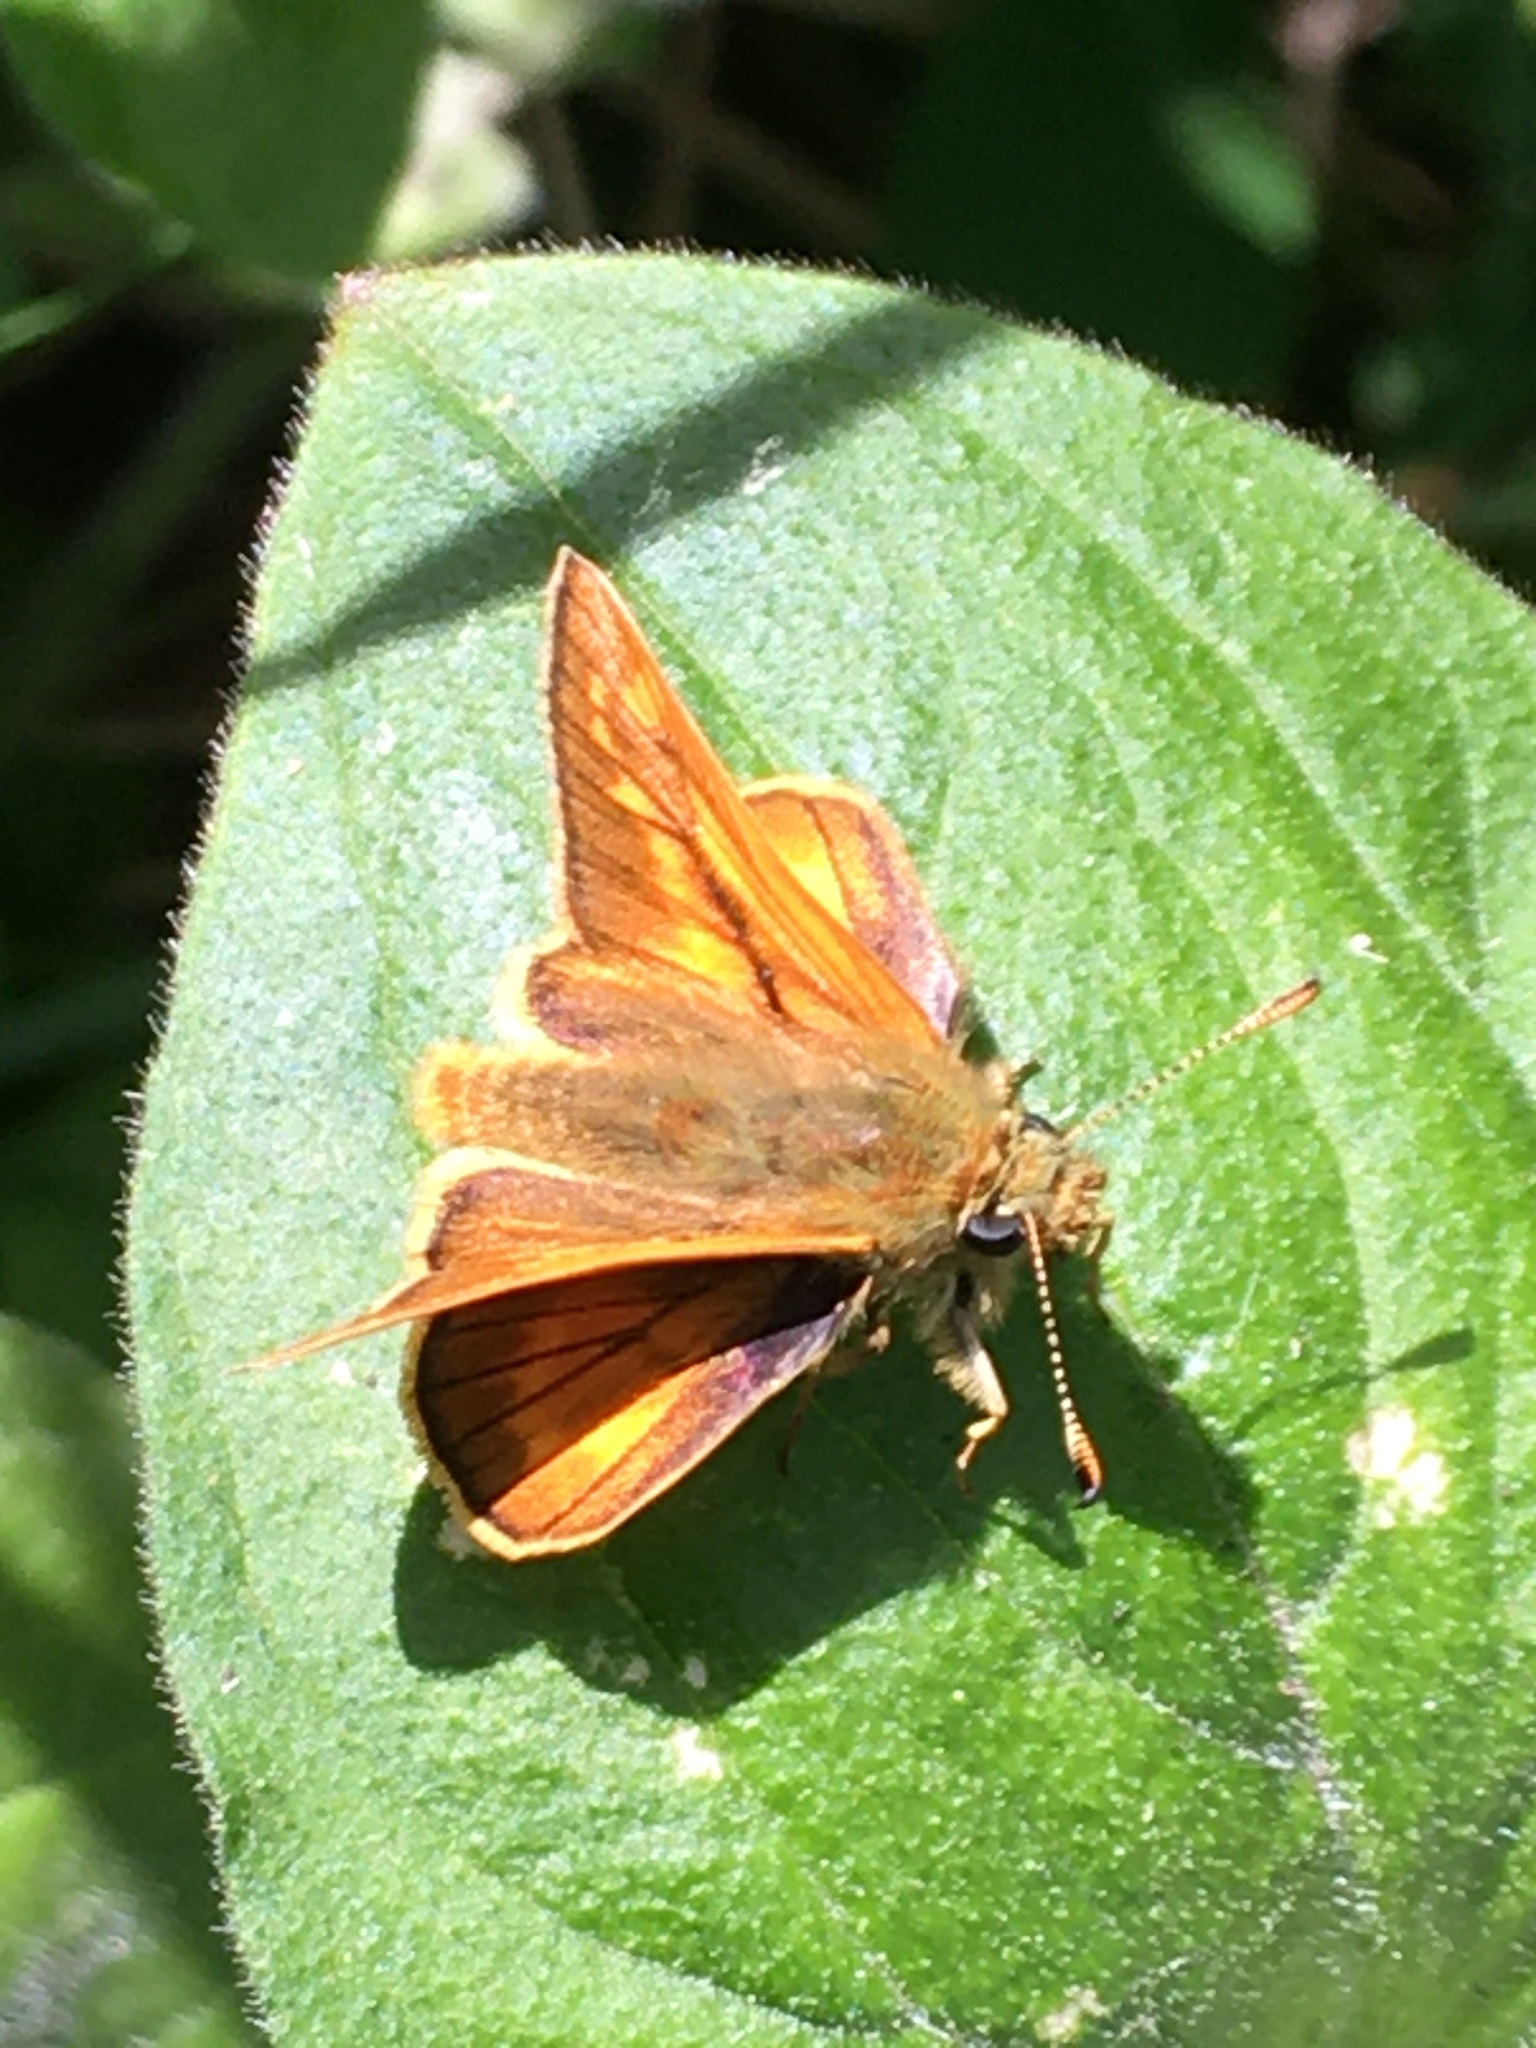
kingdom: Animalia
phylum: Arthropoda
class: Insecta
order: Lepidoptera
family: Hesperiidae
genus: Ochlodes
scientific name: Ochlodes venata
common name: Large skipper
